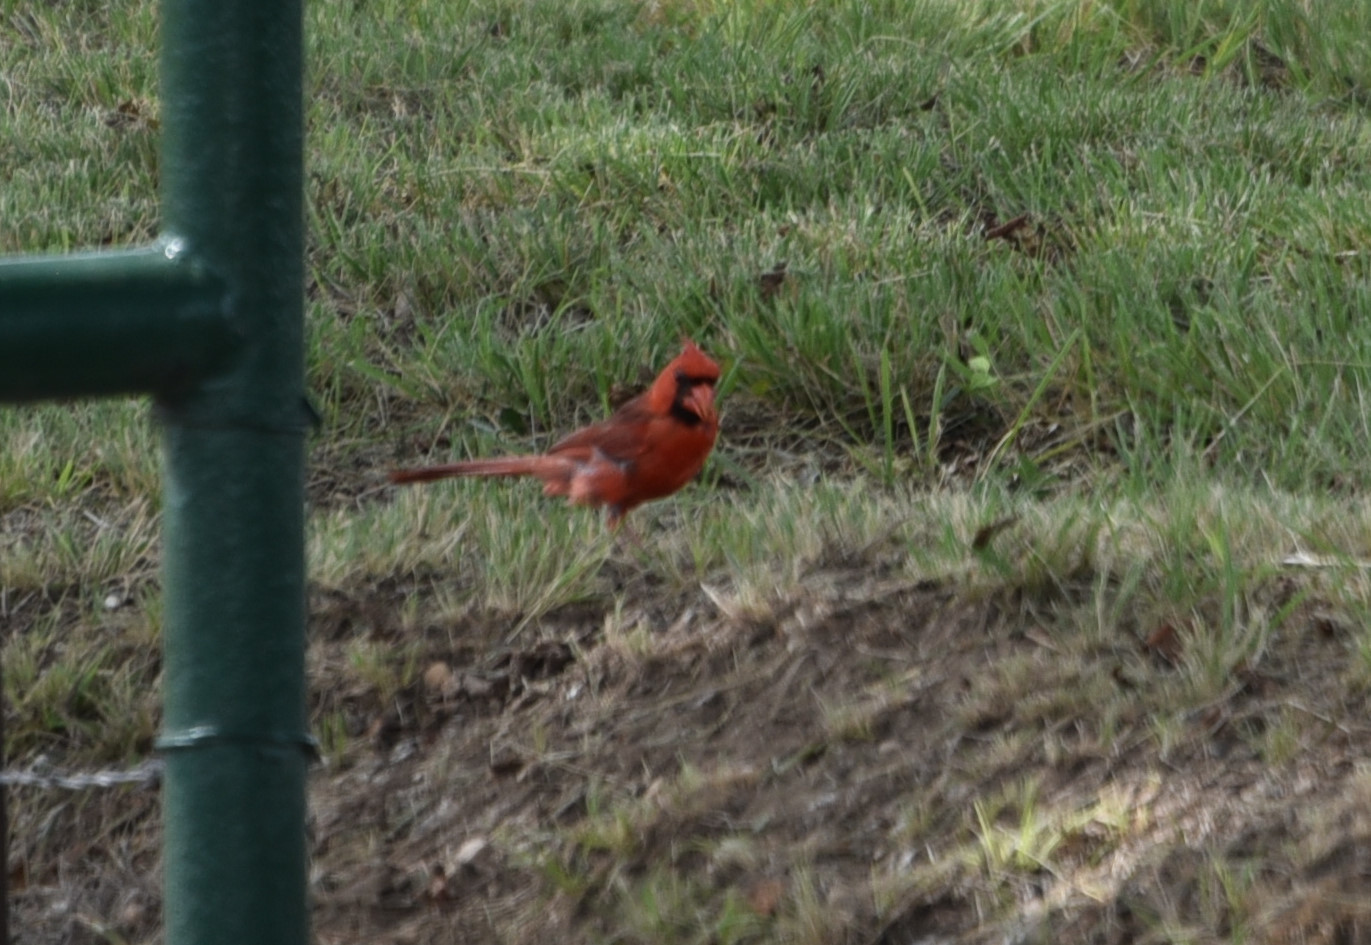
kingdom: Animalia
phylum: Chordata
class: Aves
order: Passeriformes
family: Cardinalidae
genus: Cardinalis
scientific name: Cardinalis cardinalis
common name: Northern cardinal
